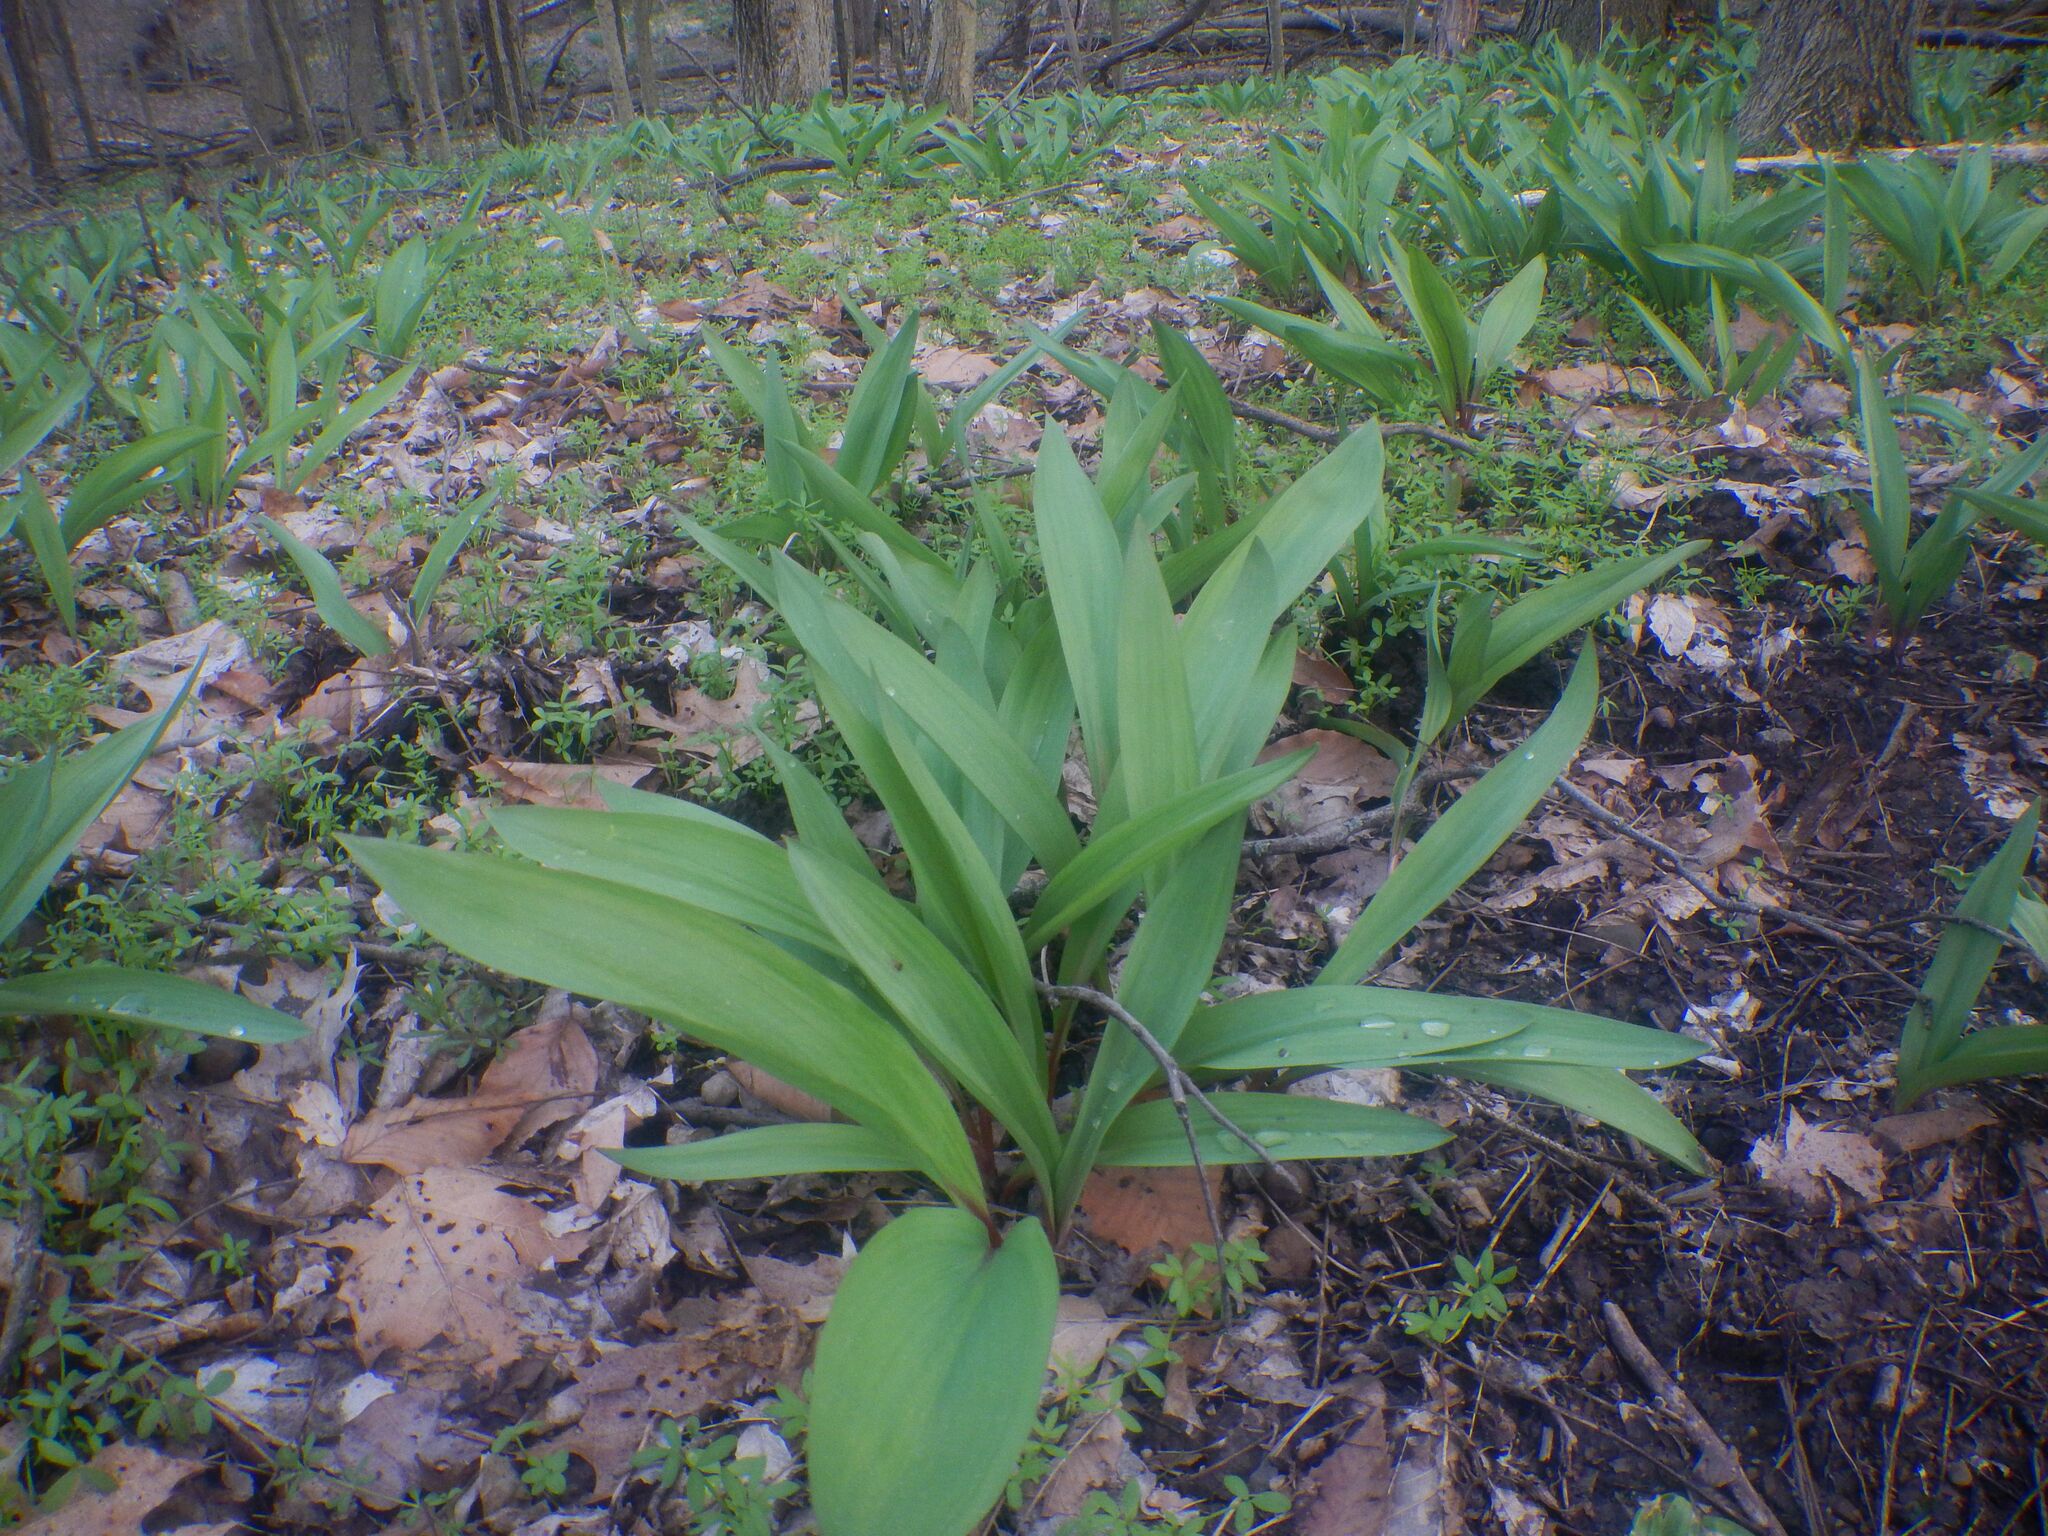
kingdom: Plantae
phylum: Tracheophyta
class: Liliopsida
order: Asparagales
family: Amaryllidaceae
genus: Allium
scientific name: Allium tricoccum
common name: Ramp
